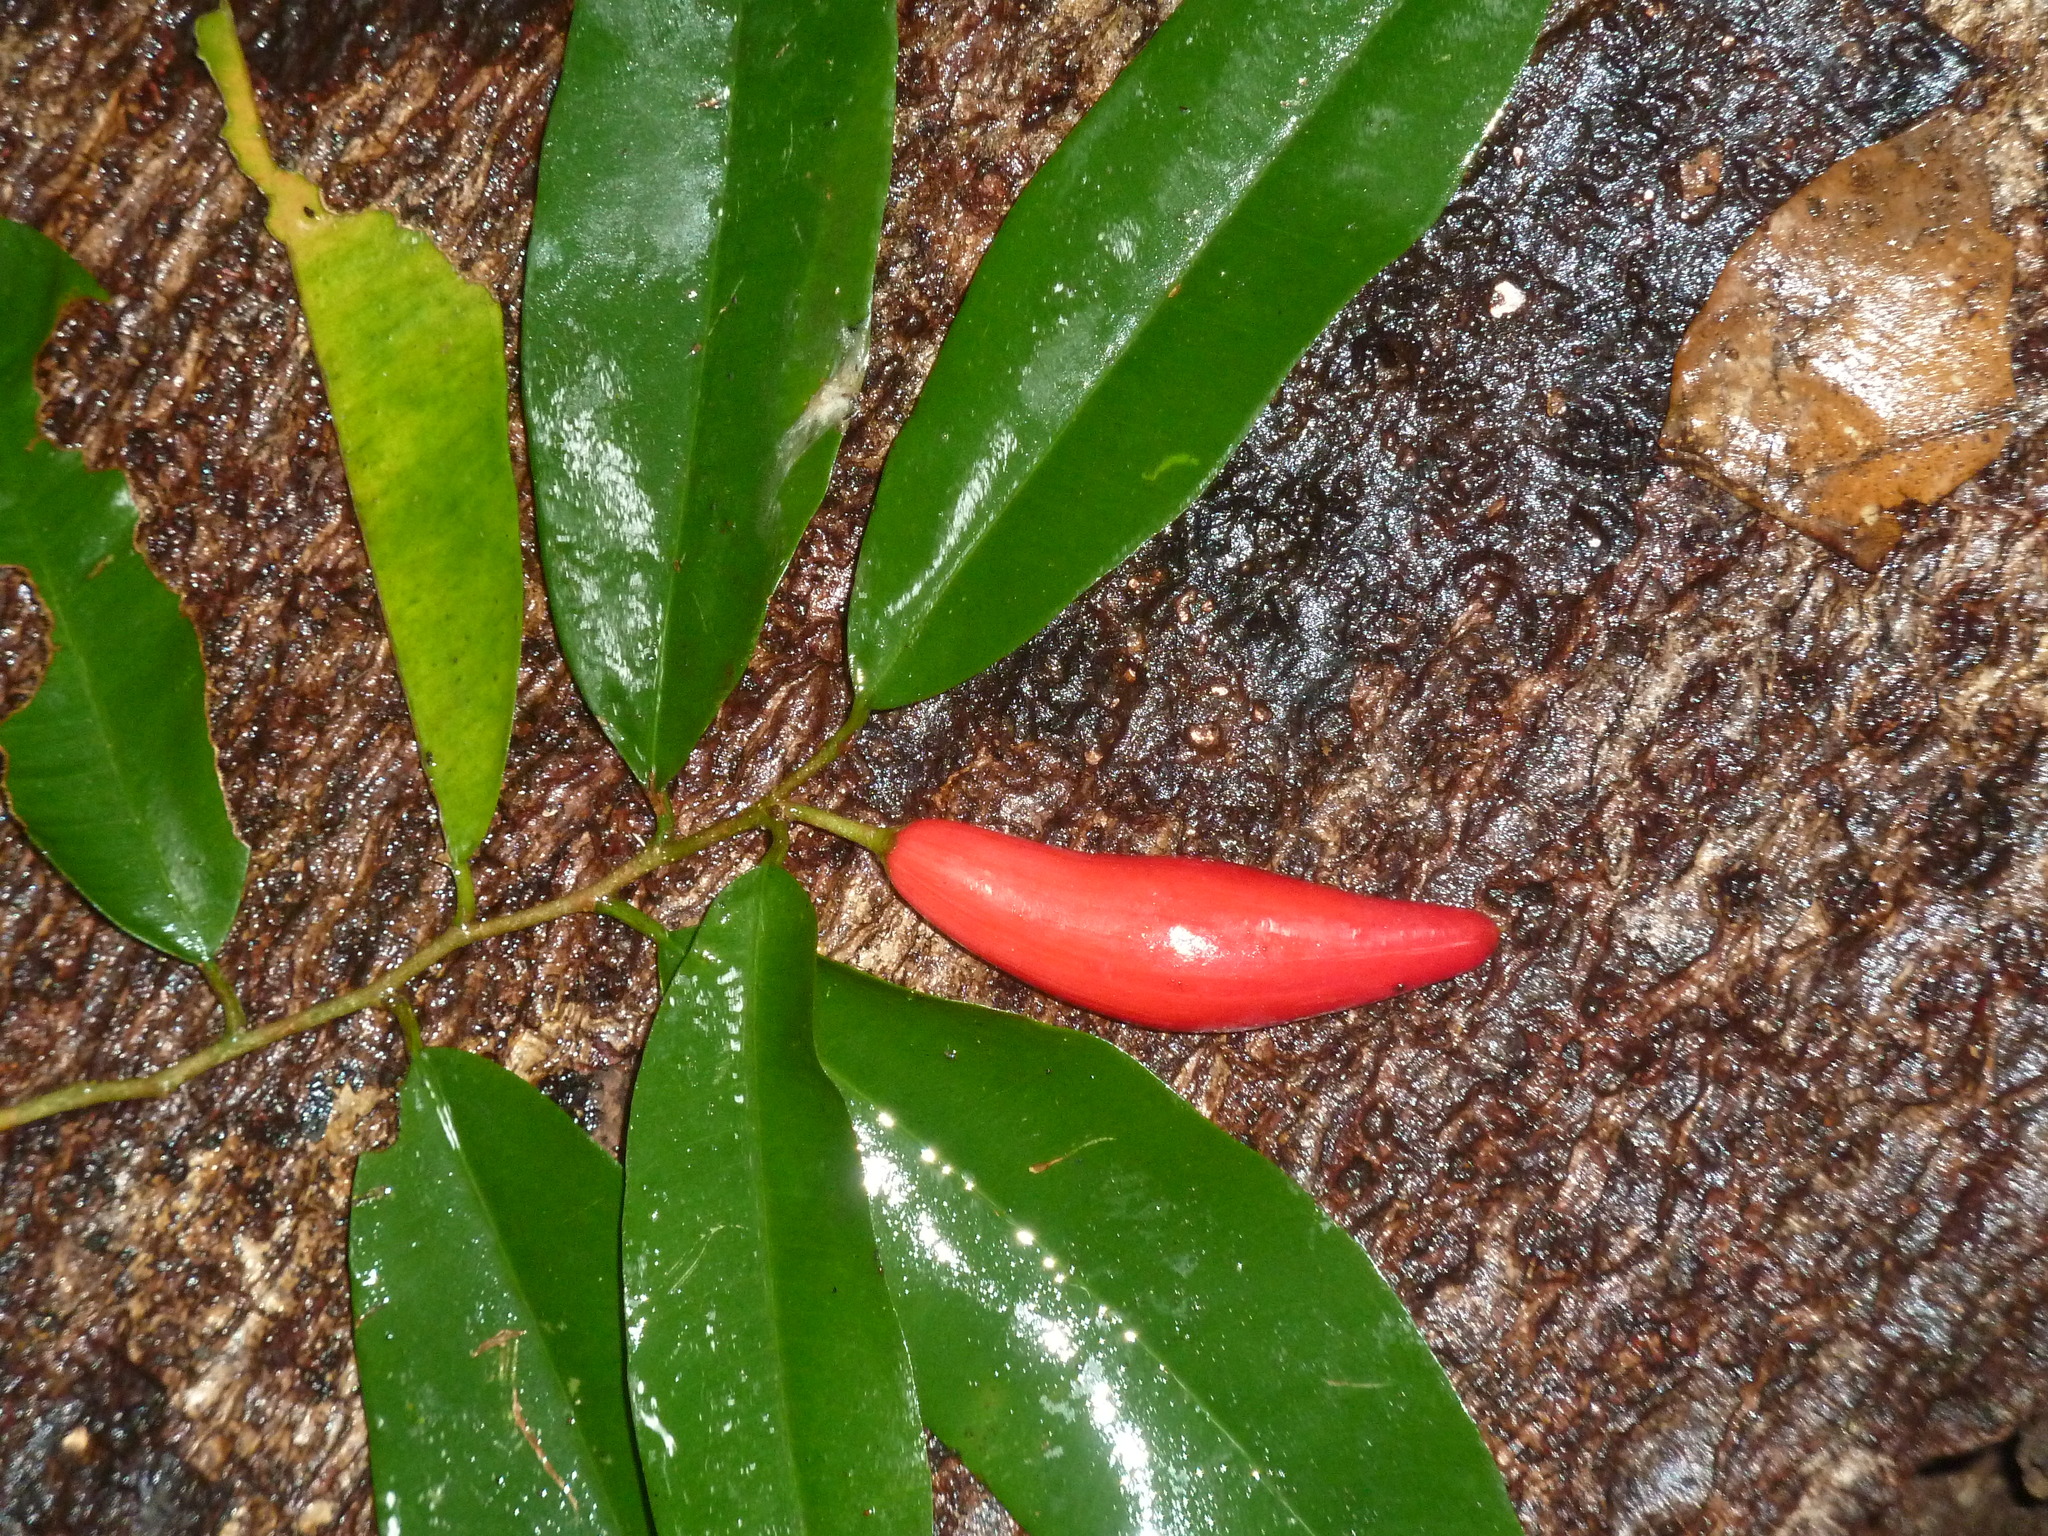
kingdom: Plantae
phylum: Tracheophyta
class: Magnoliopsida
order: Ericales
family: Sapotaceae
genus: Chrysophyllum
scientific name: Chrysophyllum moralesianum
